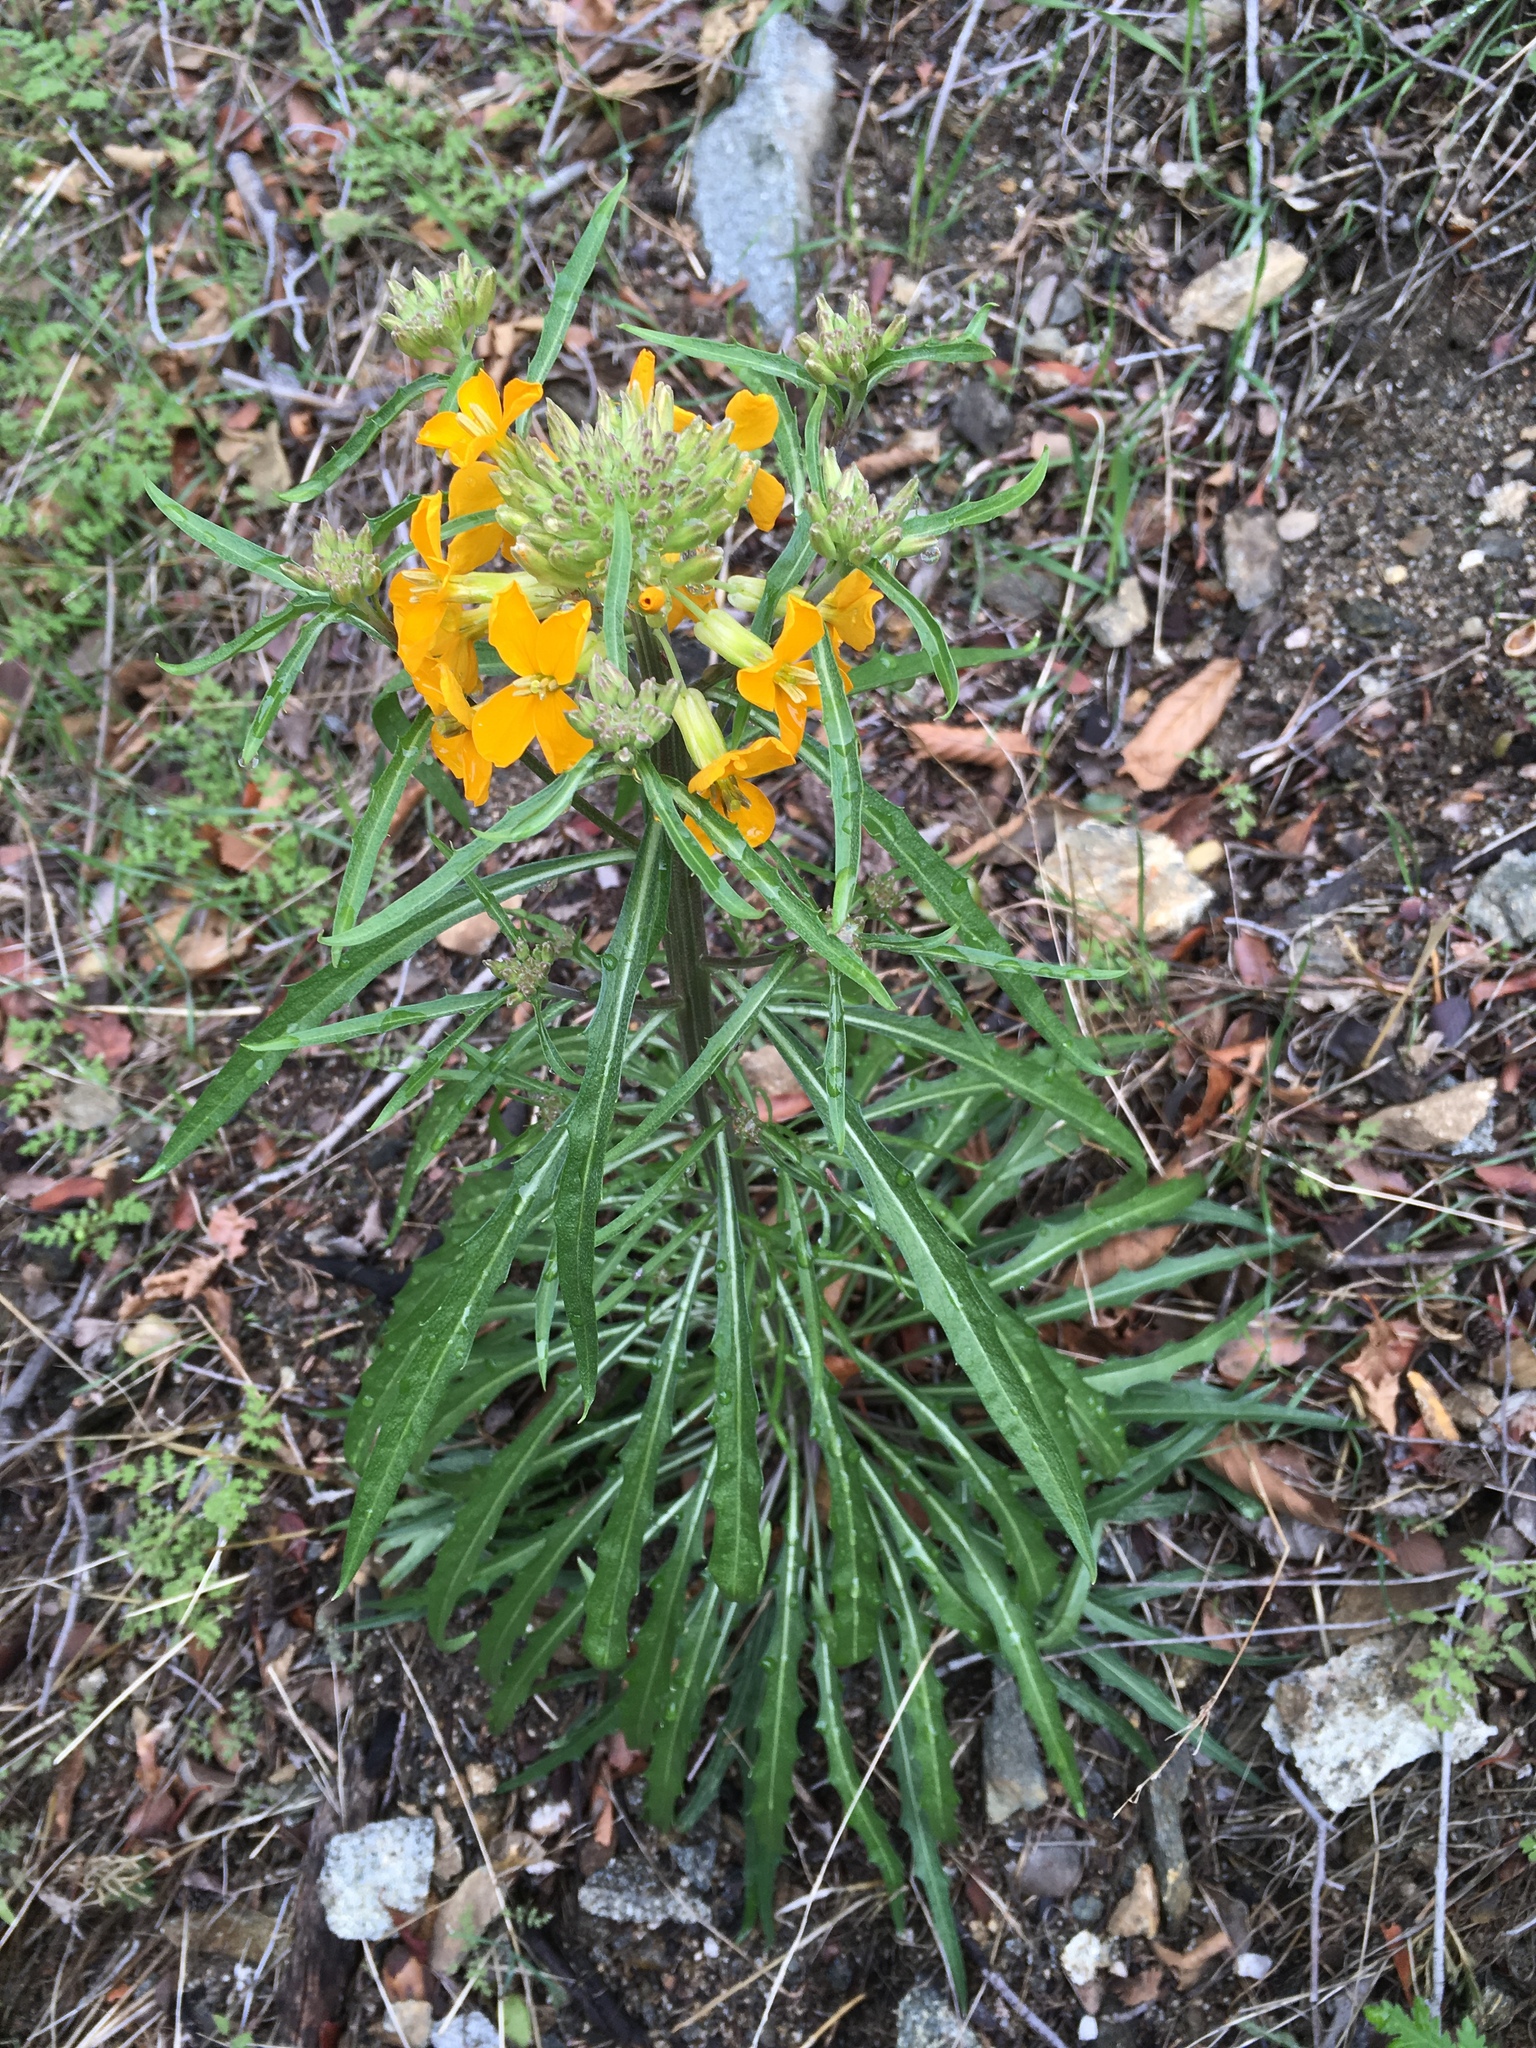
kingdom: Plantae
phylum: Tracheophyta
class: Magnoliopsida
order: Brassicales
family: Brassicaceae
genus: Erysimum
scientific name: Erysimum capitatum
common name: Western wallflower
